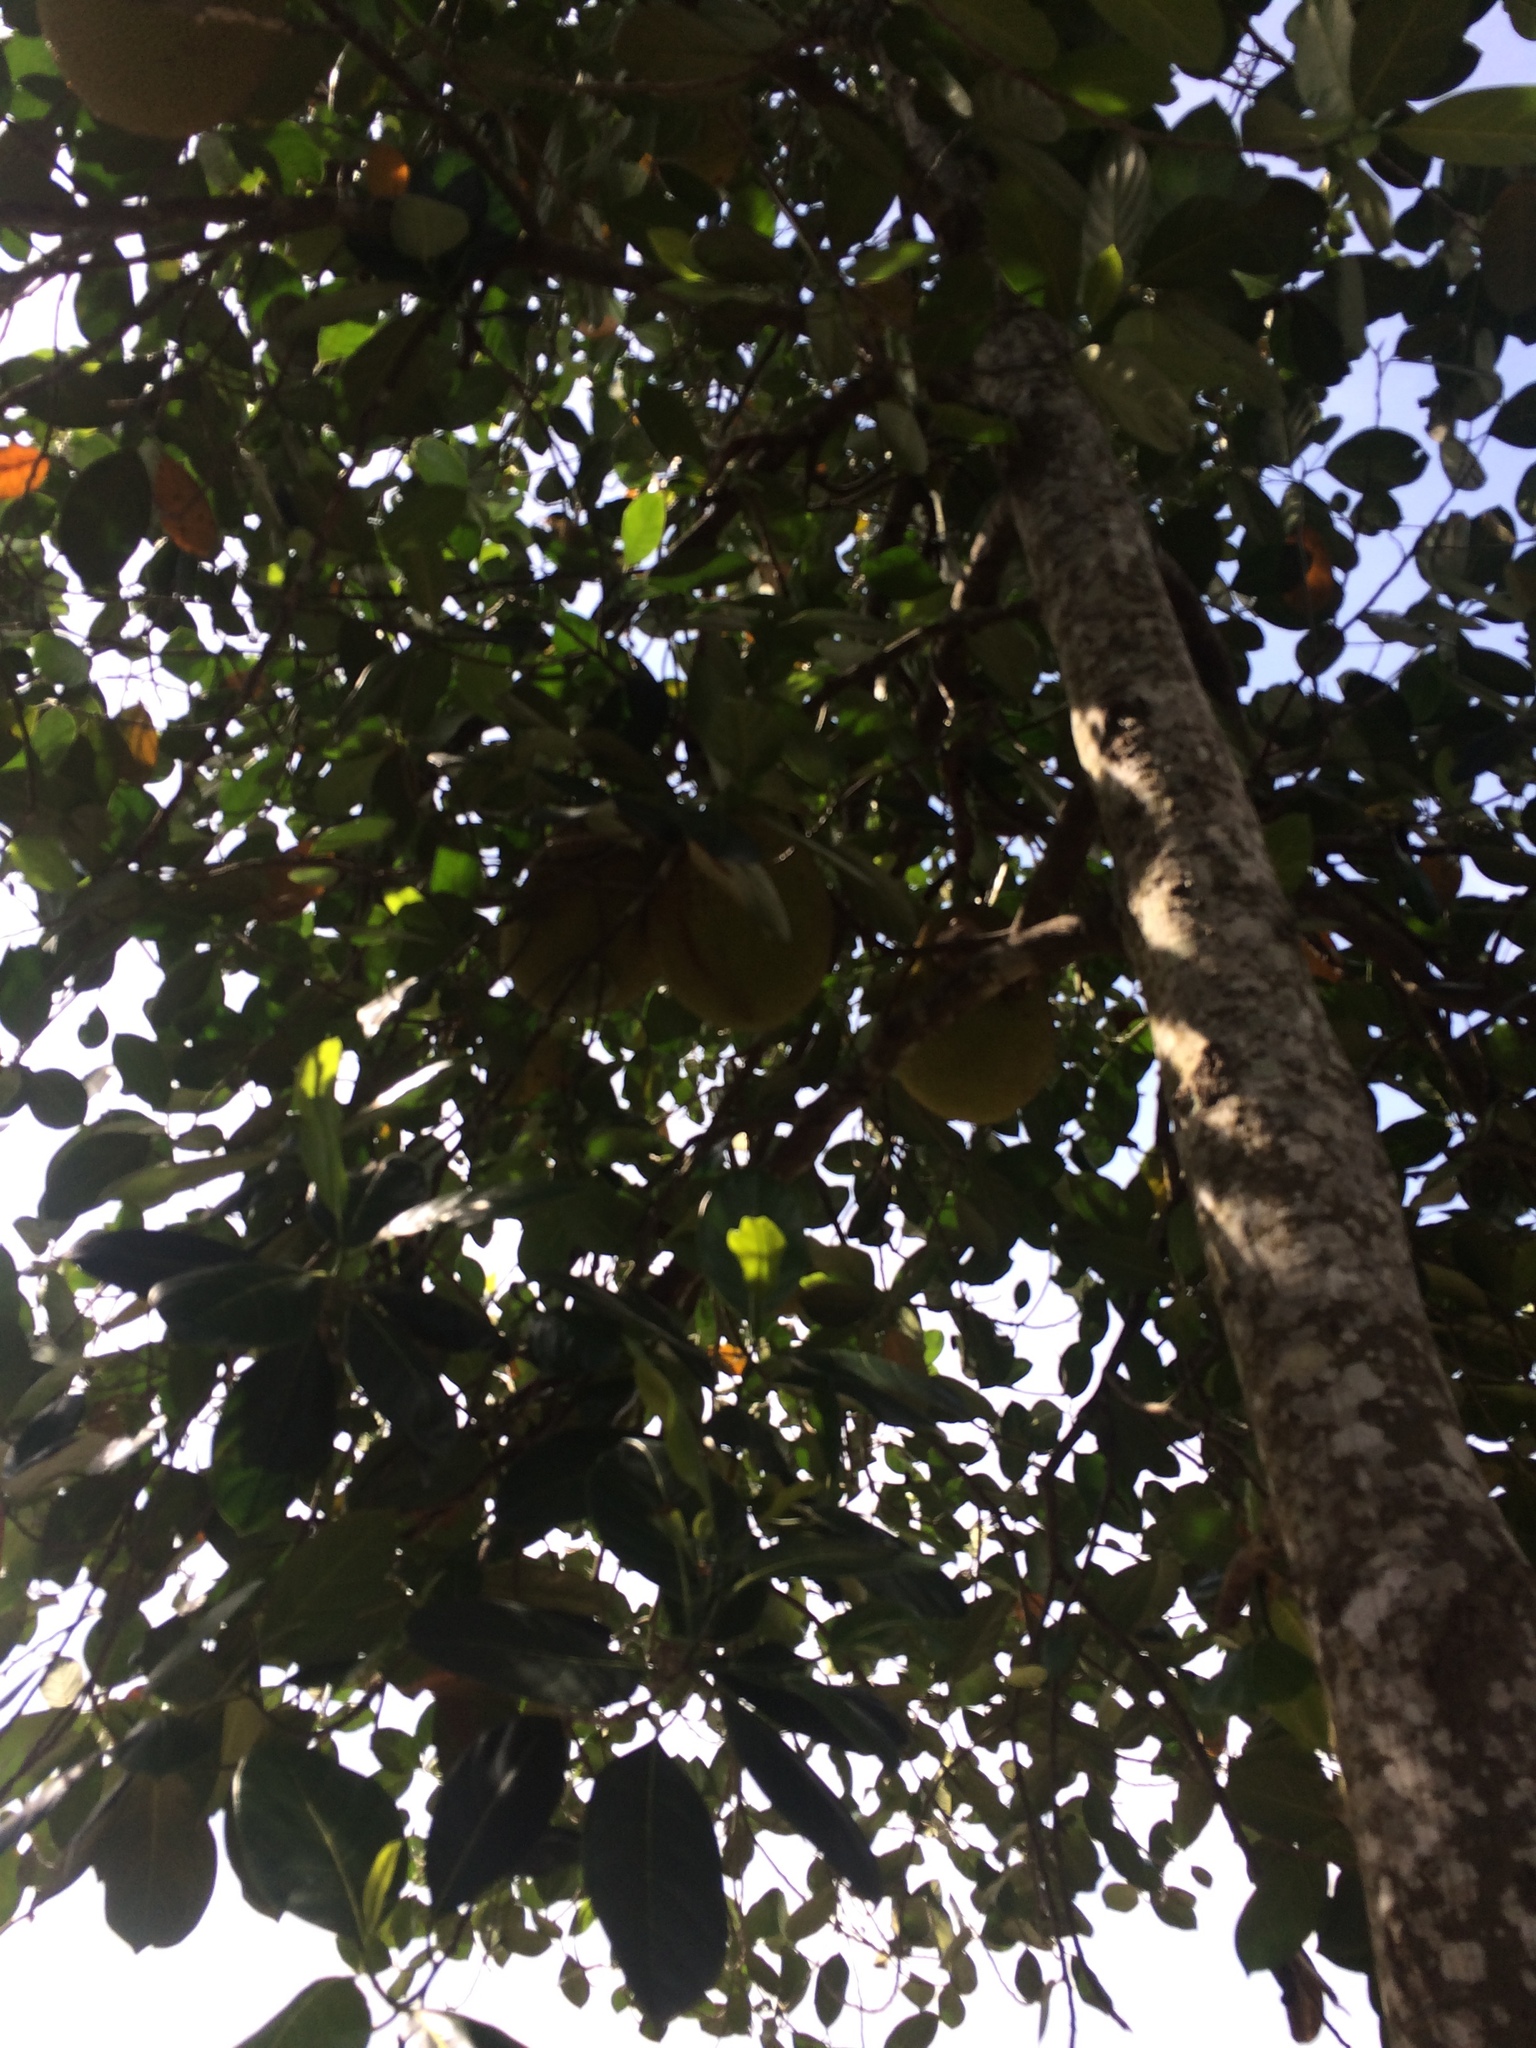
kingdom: Plantae
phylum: Tracheophyta
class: Magnoliopsida
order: Rosales
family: Moraceae
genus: Artocarpus
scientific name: Artocarpus heterophyllus
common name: Jackfruit
